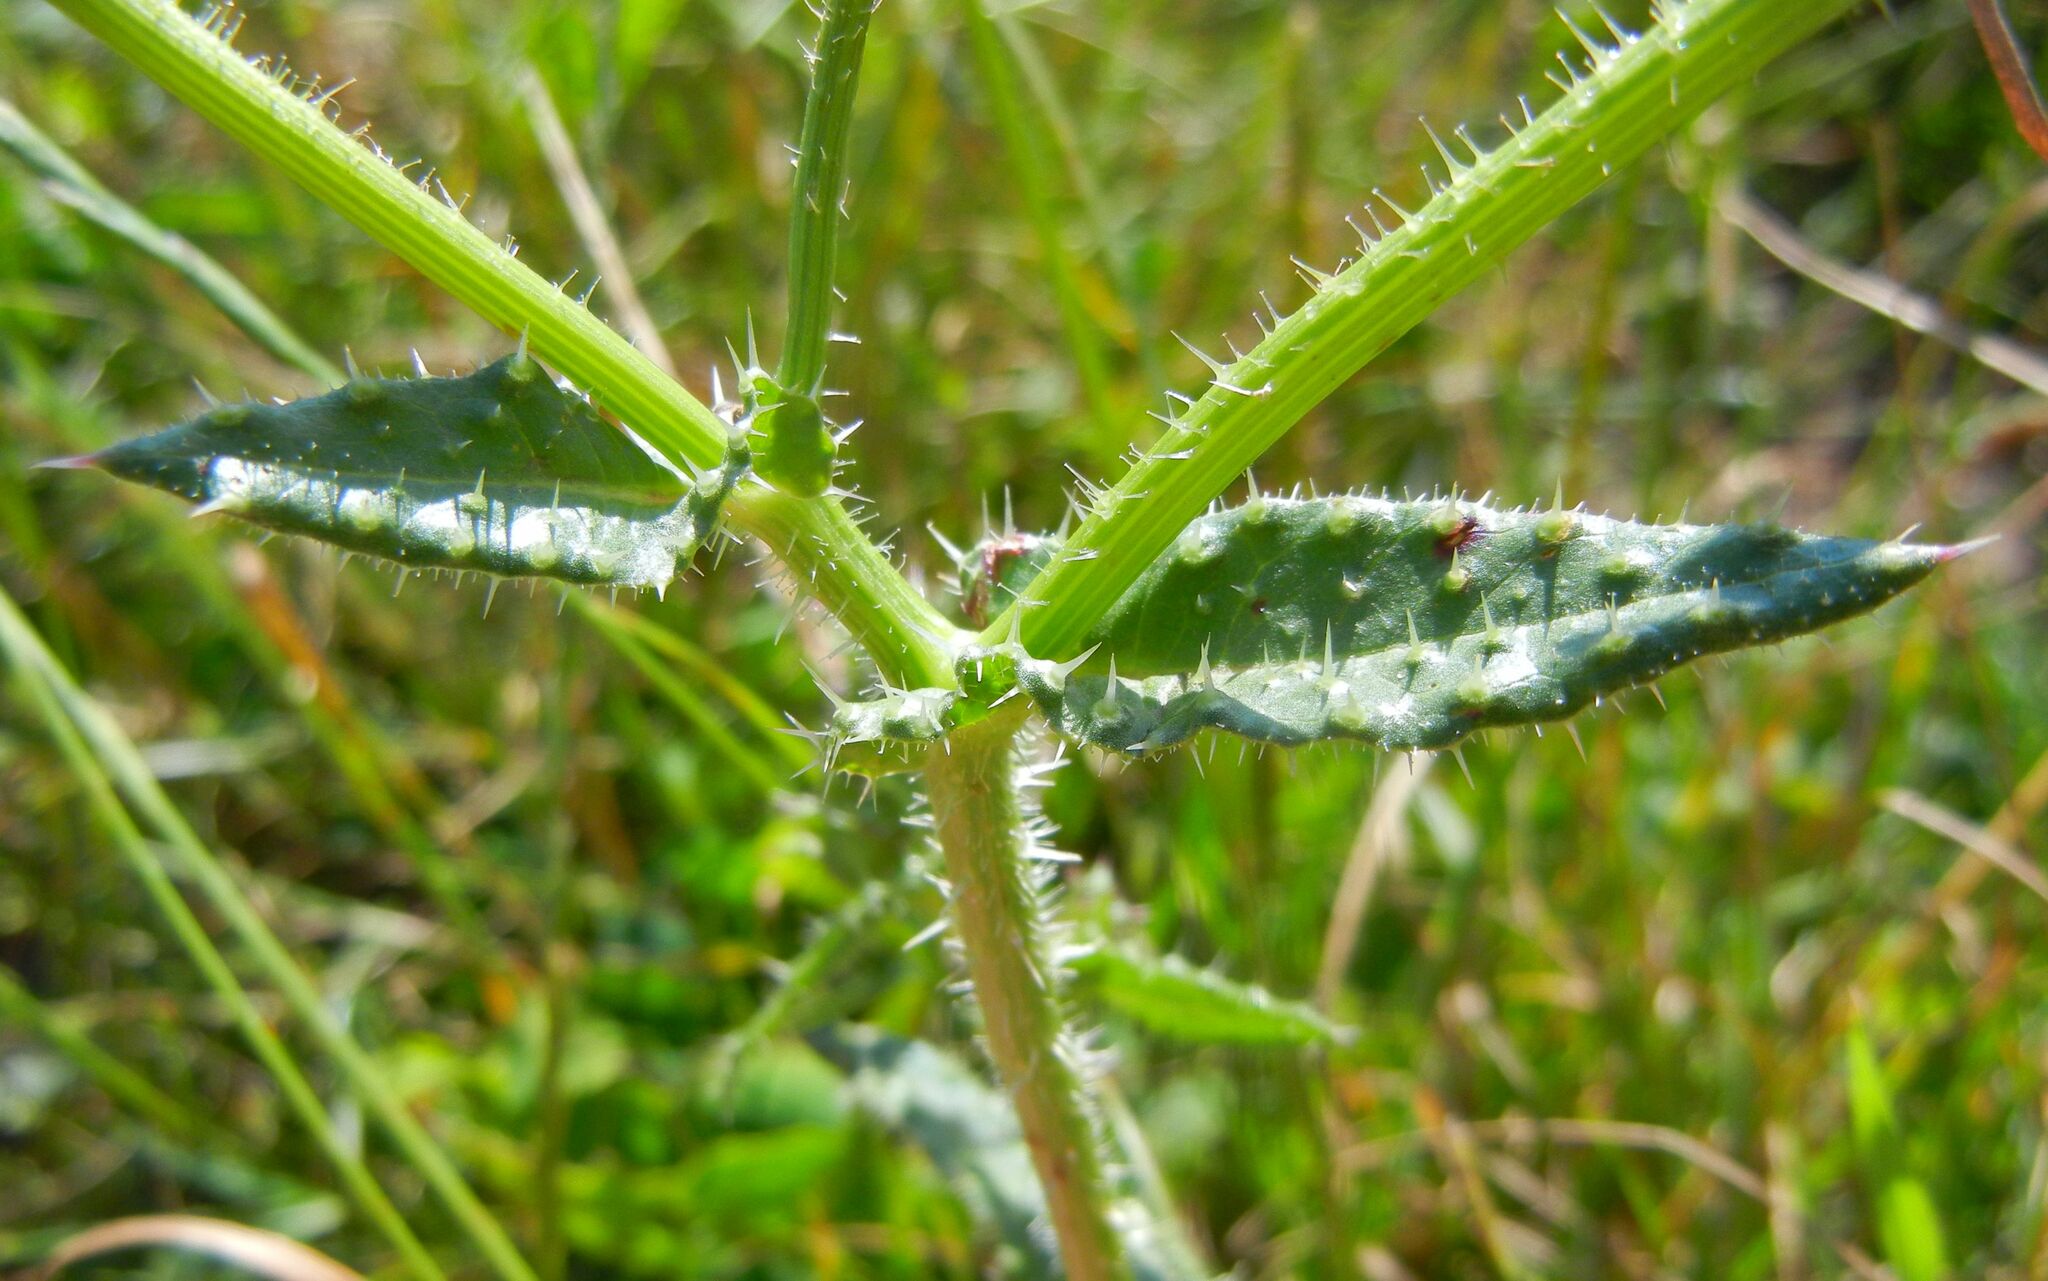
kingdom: Plantae
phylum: Tracheophyta
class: Magnoliopsida
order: Asterales
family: Asteraceae
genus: Helminthotheca
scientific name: Helminthotheca echioides
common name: Ox-tongue
